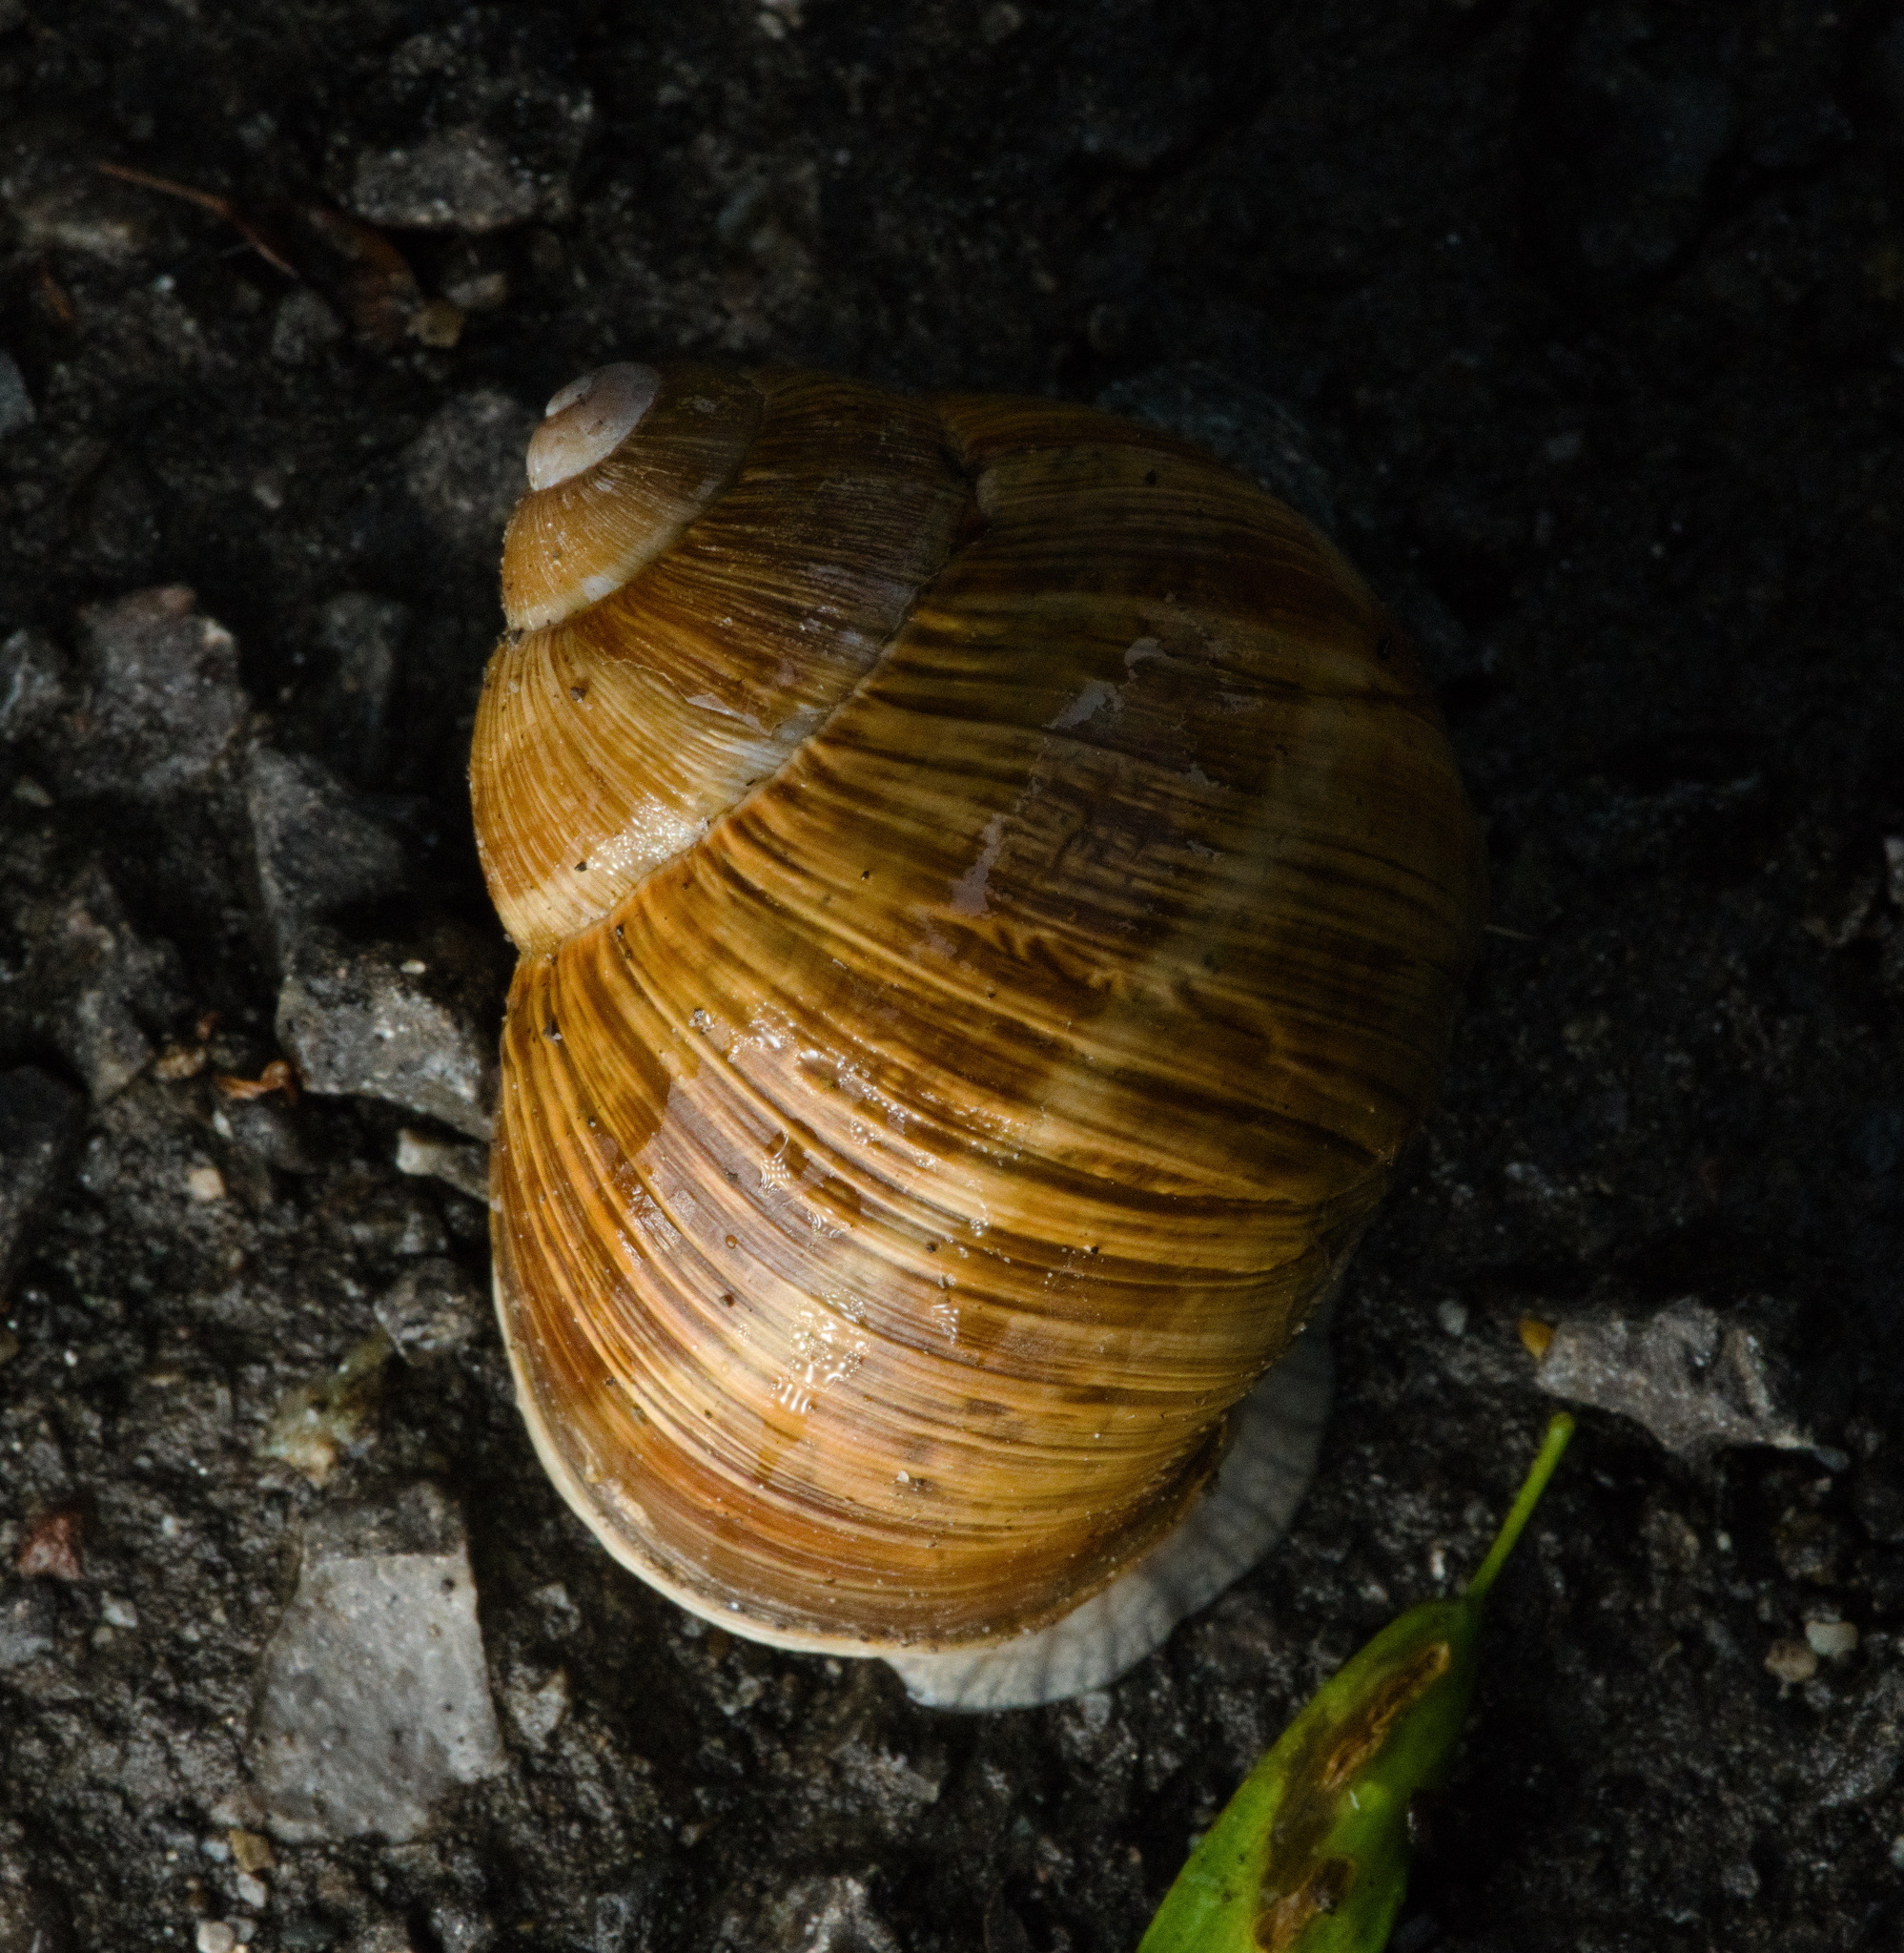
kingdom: Animalia
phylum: Mollusca
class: Gastropoda
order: Stylommatophora
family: Helicidae
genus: Helix
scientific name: Helix pomatia
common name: Roman snail
